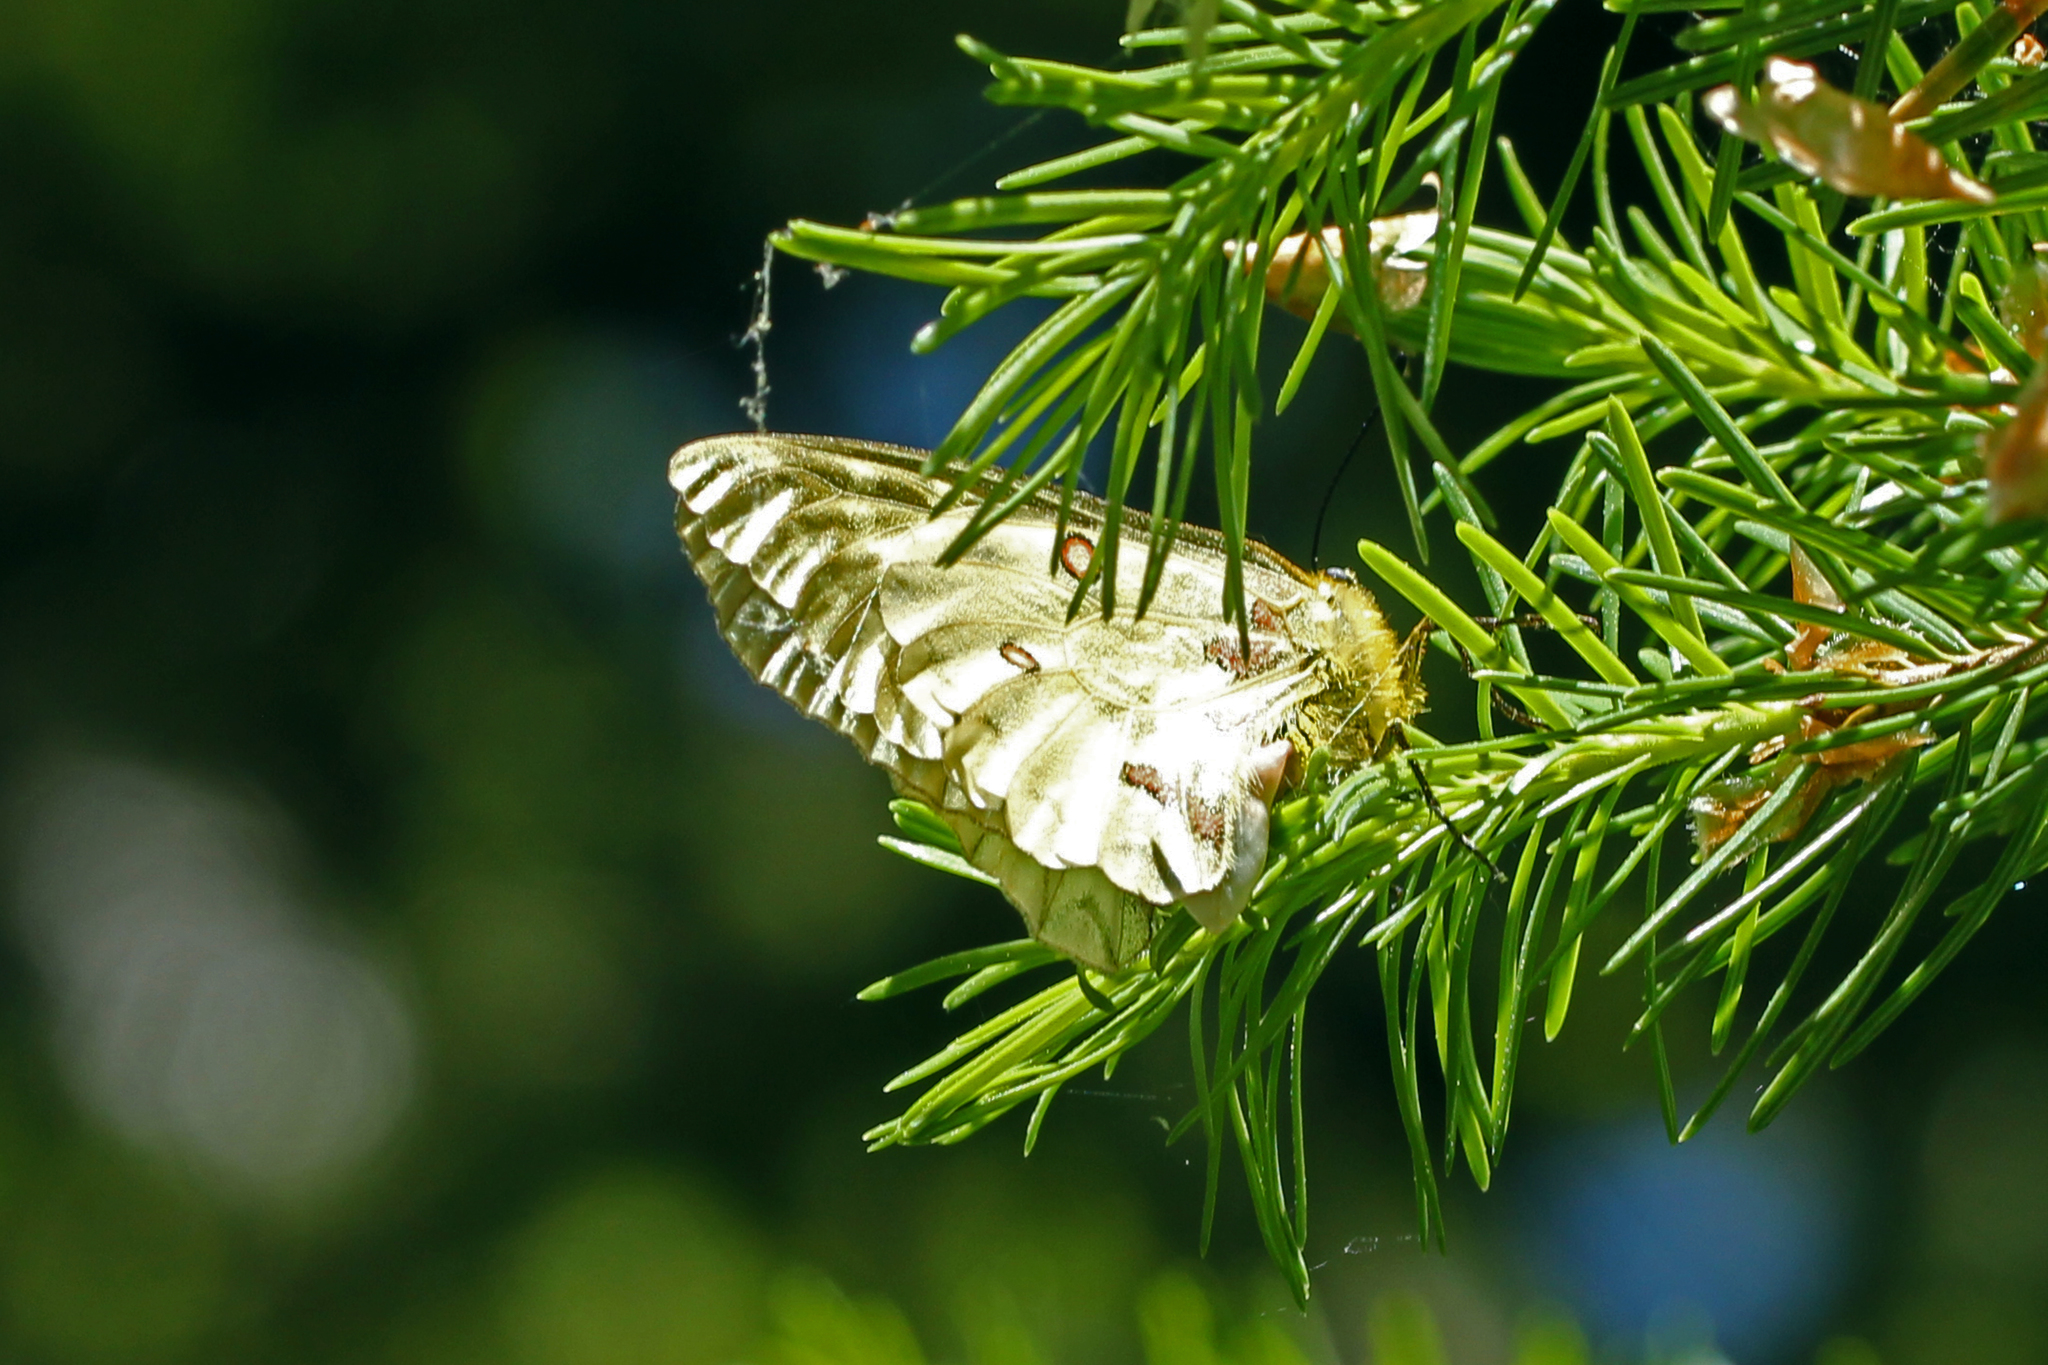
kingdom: Animalia
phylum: Arthropoda
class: Insecta
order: Lepidoptera
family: Papilionidae
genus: Parnassius
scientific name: Parnassius clodius
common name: American apollo
